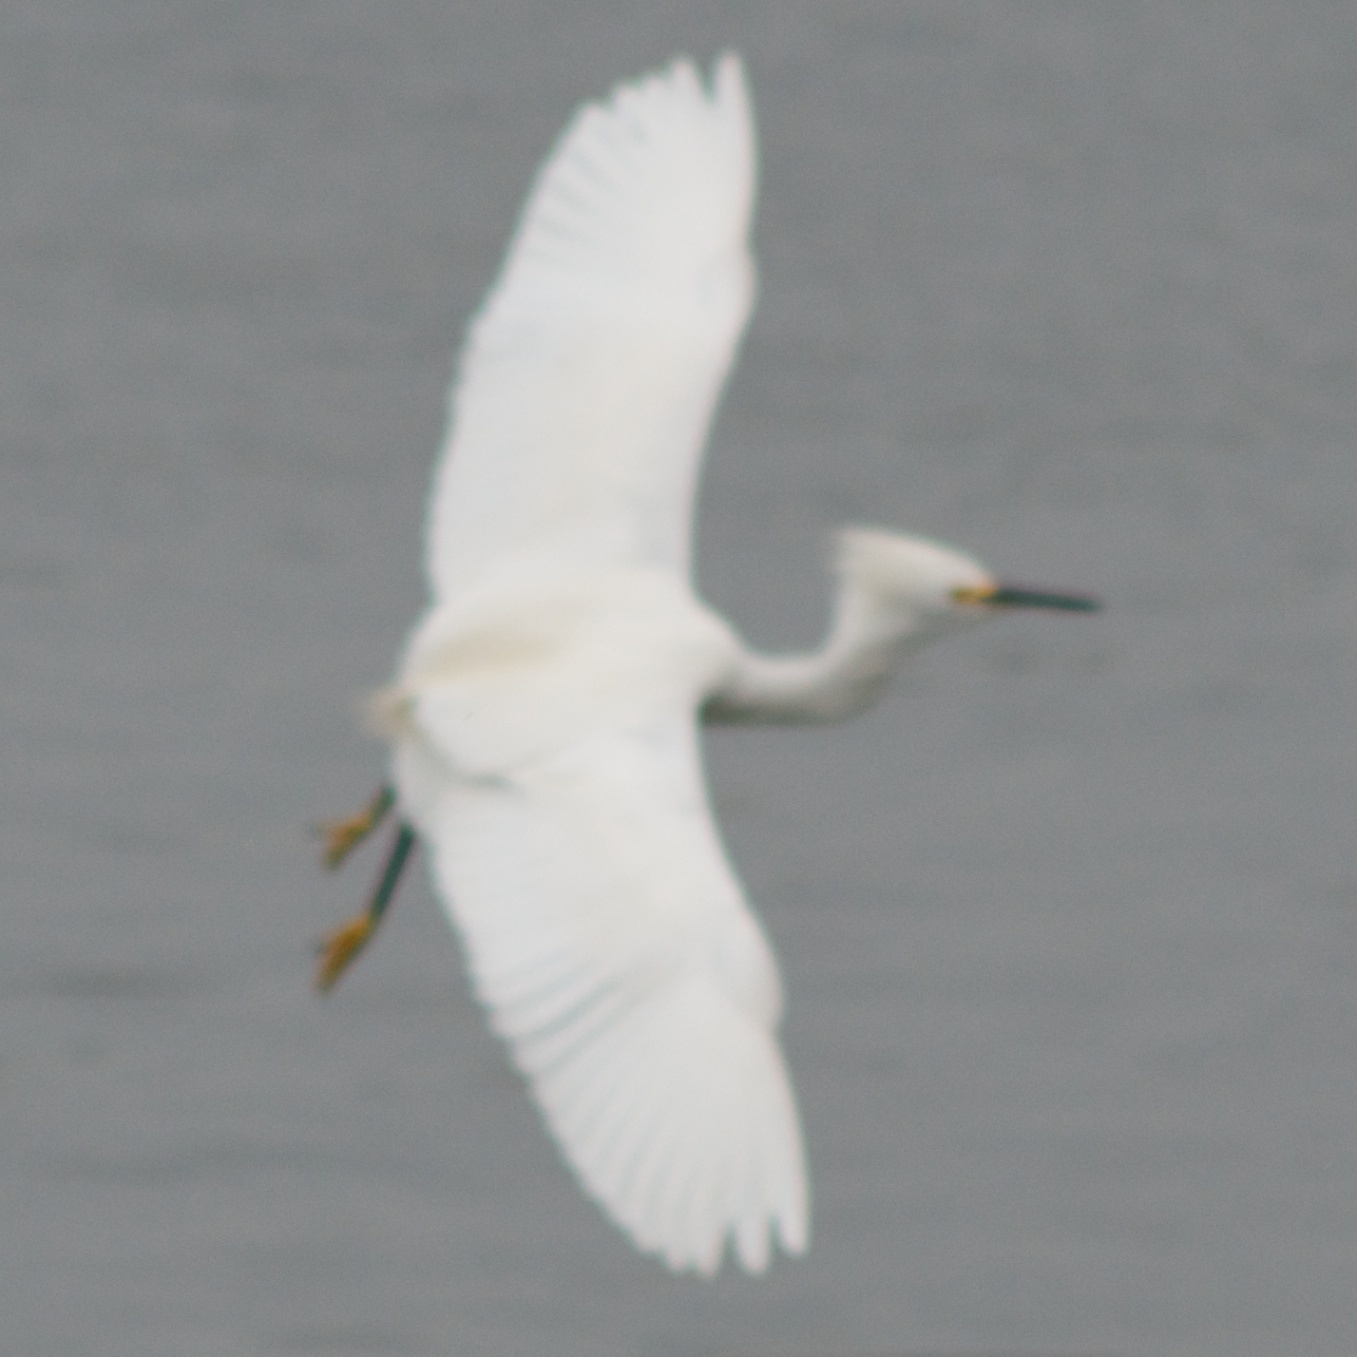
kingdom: Animalia
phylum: Chordata
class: Aves
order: Pelecaniformes
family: Ardeidae
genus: Egretta
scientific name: Egretta thula
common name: Snowy egret
